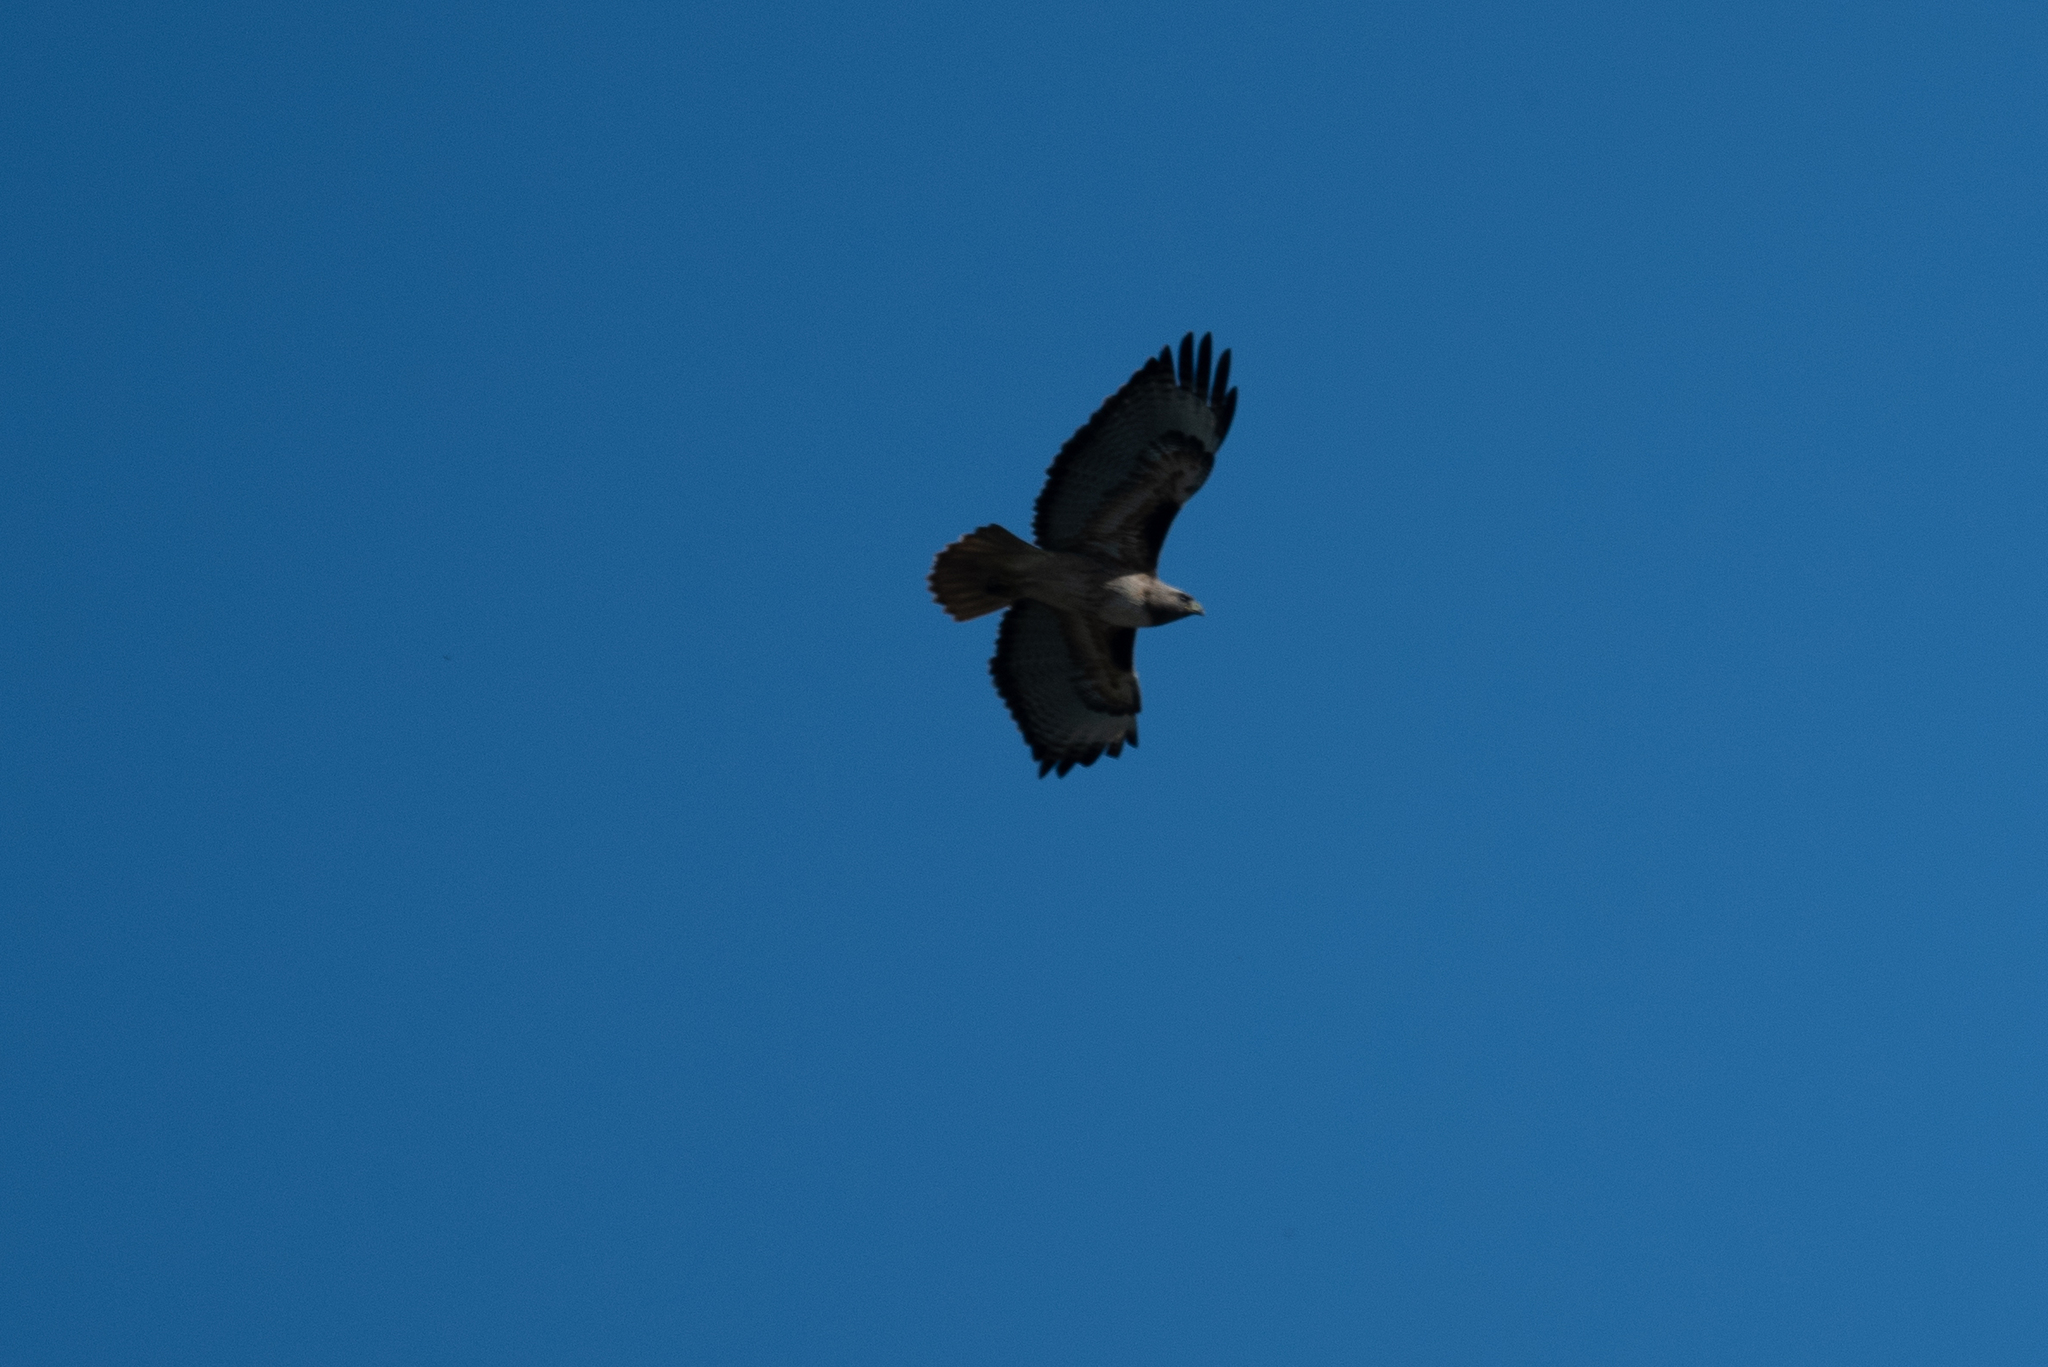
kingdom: Animalia
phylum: Chordata
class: Aves
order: Accipitriformes
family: Accipitridae
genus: Buteo
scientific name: Buteo jamaicensis
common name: Red-tailed hawk
